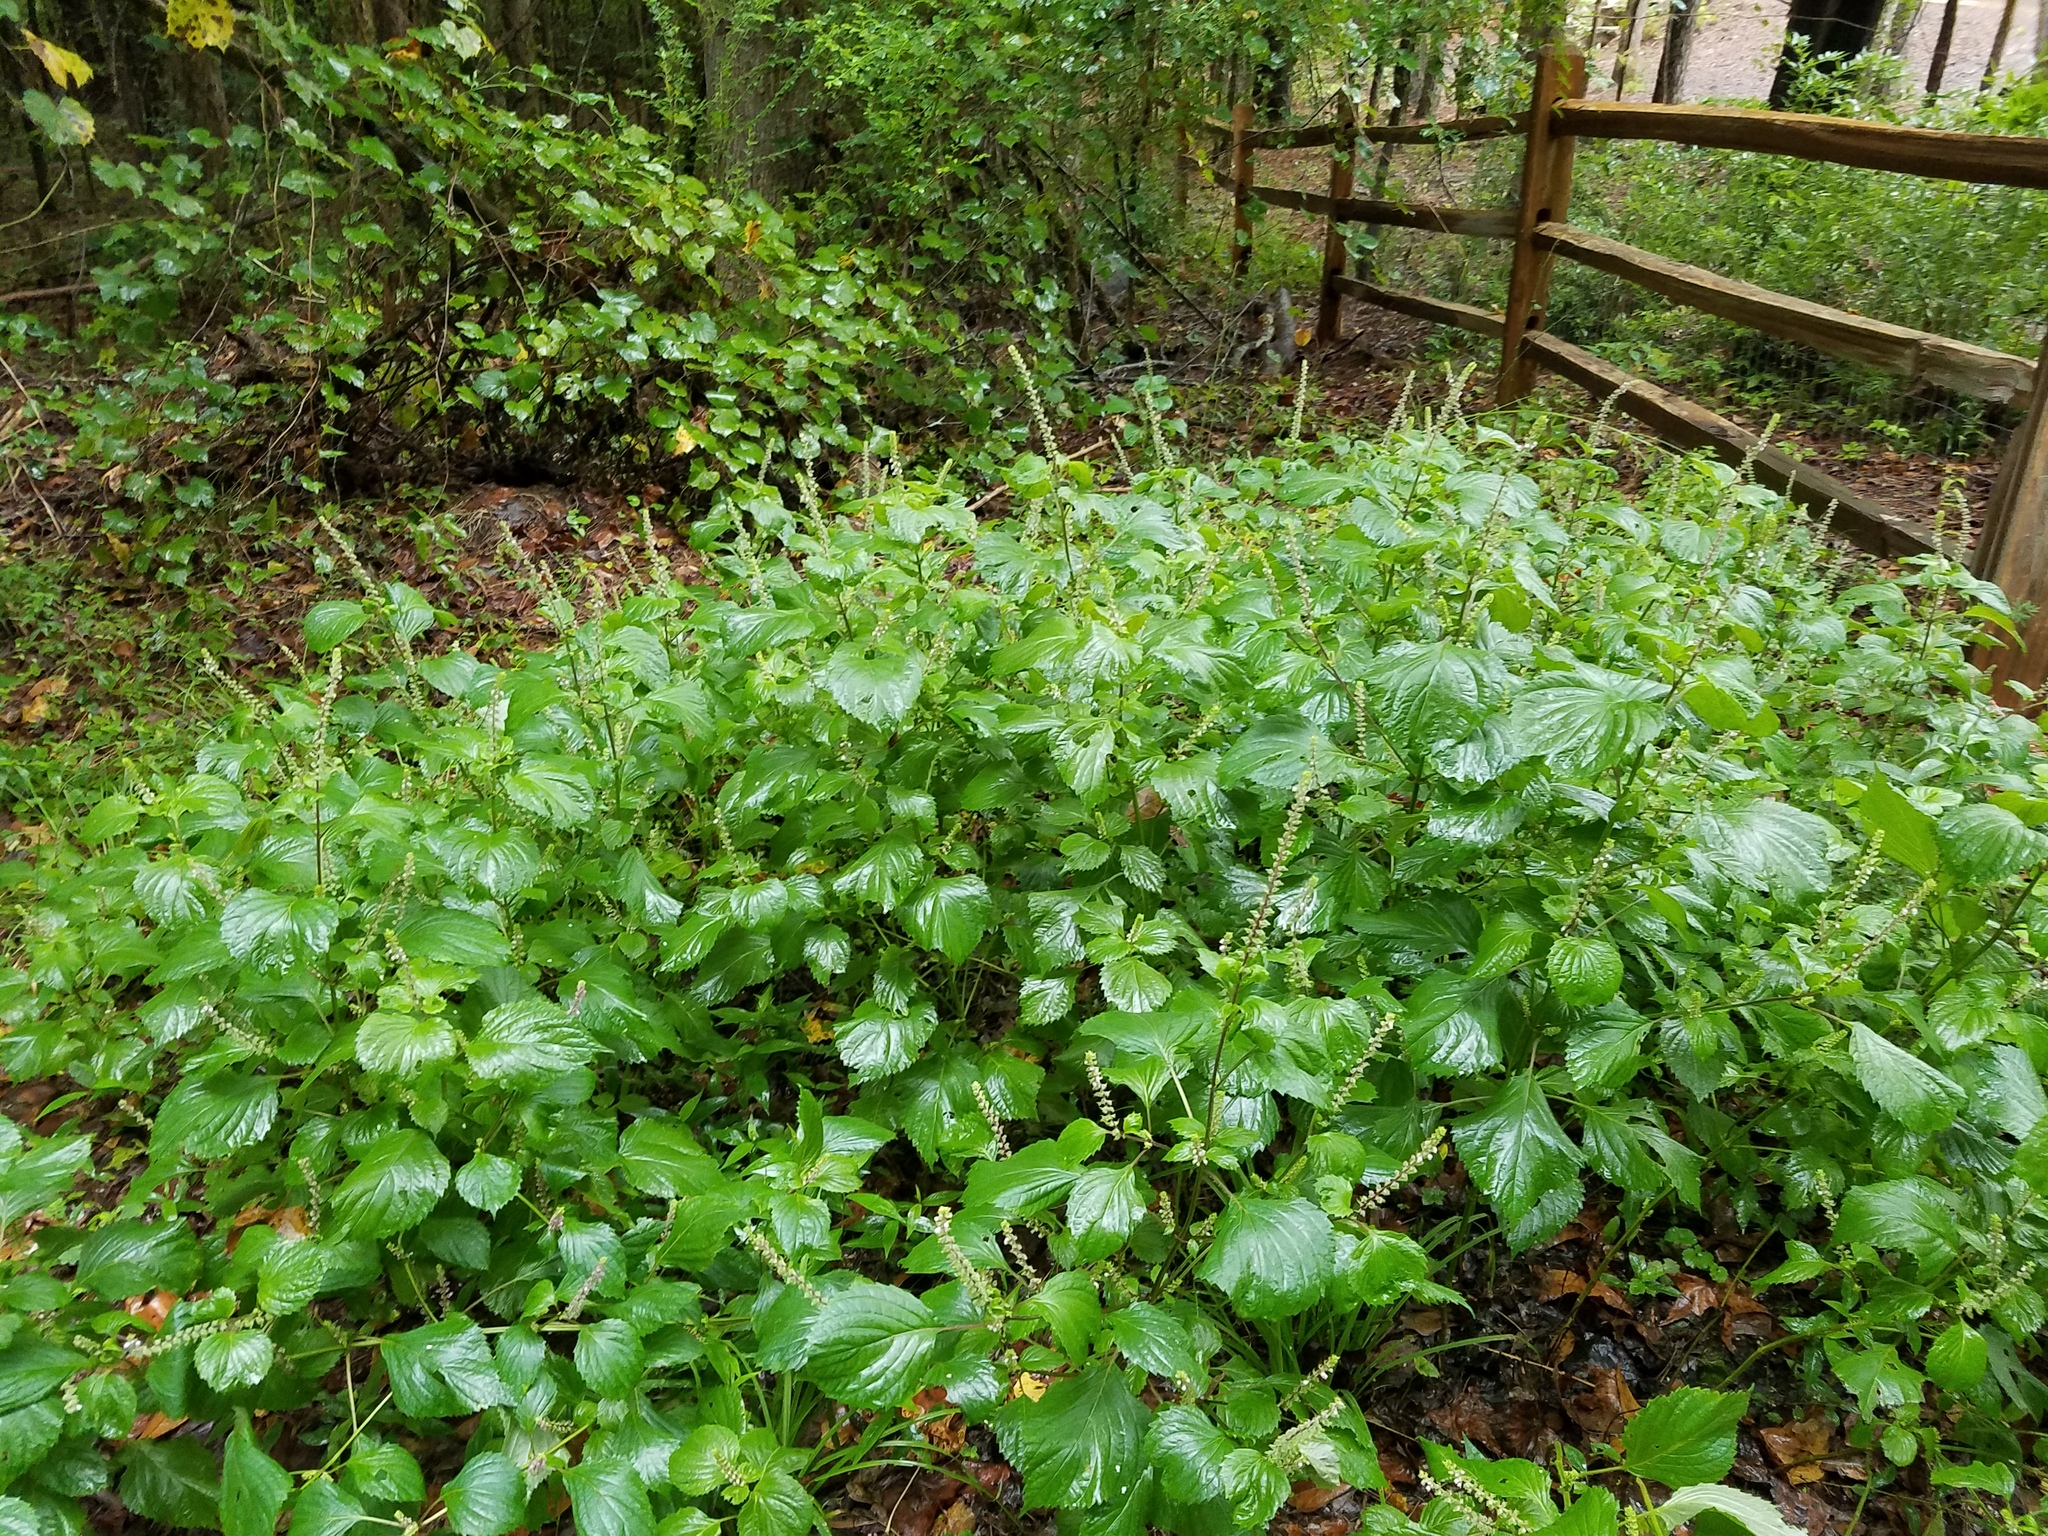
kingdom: Plantae
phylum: Tracheophyta
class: Magnoliopsida
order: Lamiales
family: Lamiaceae
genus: Perilla
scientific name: Perilla frutescens
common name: Perilla
